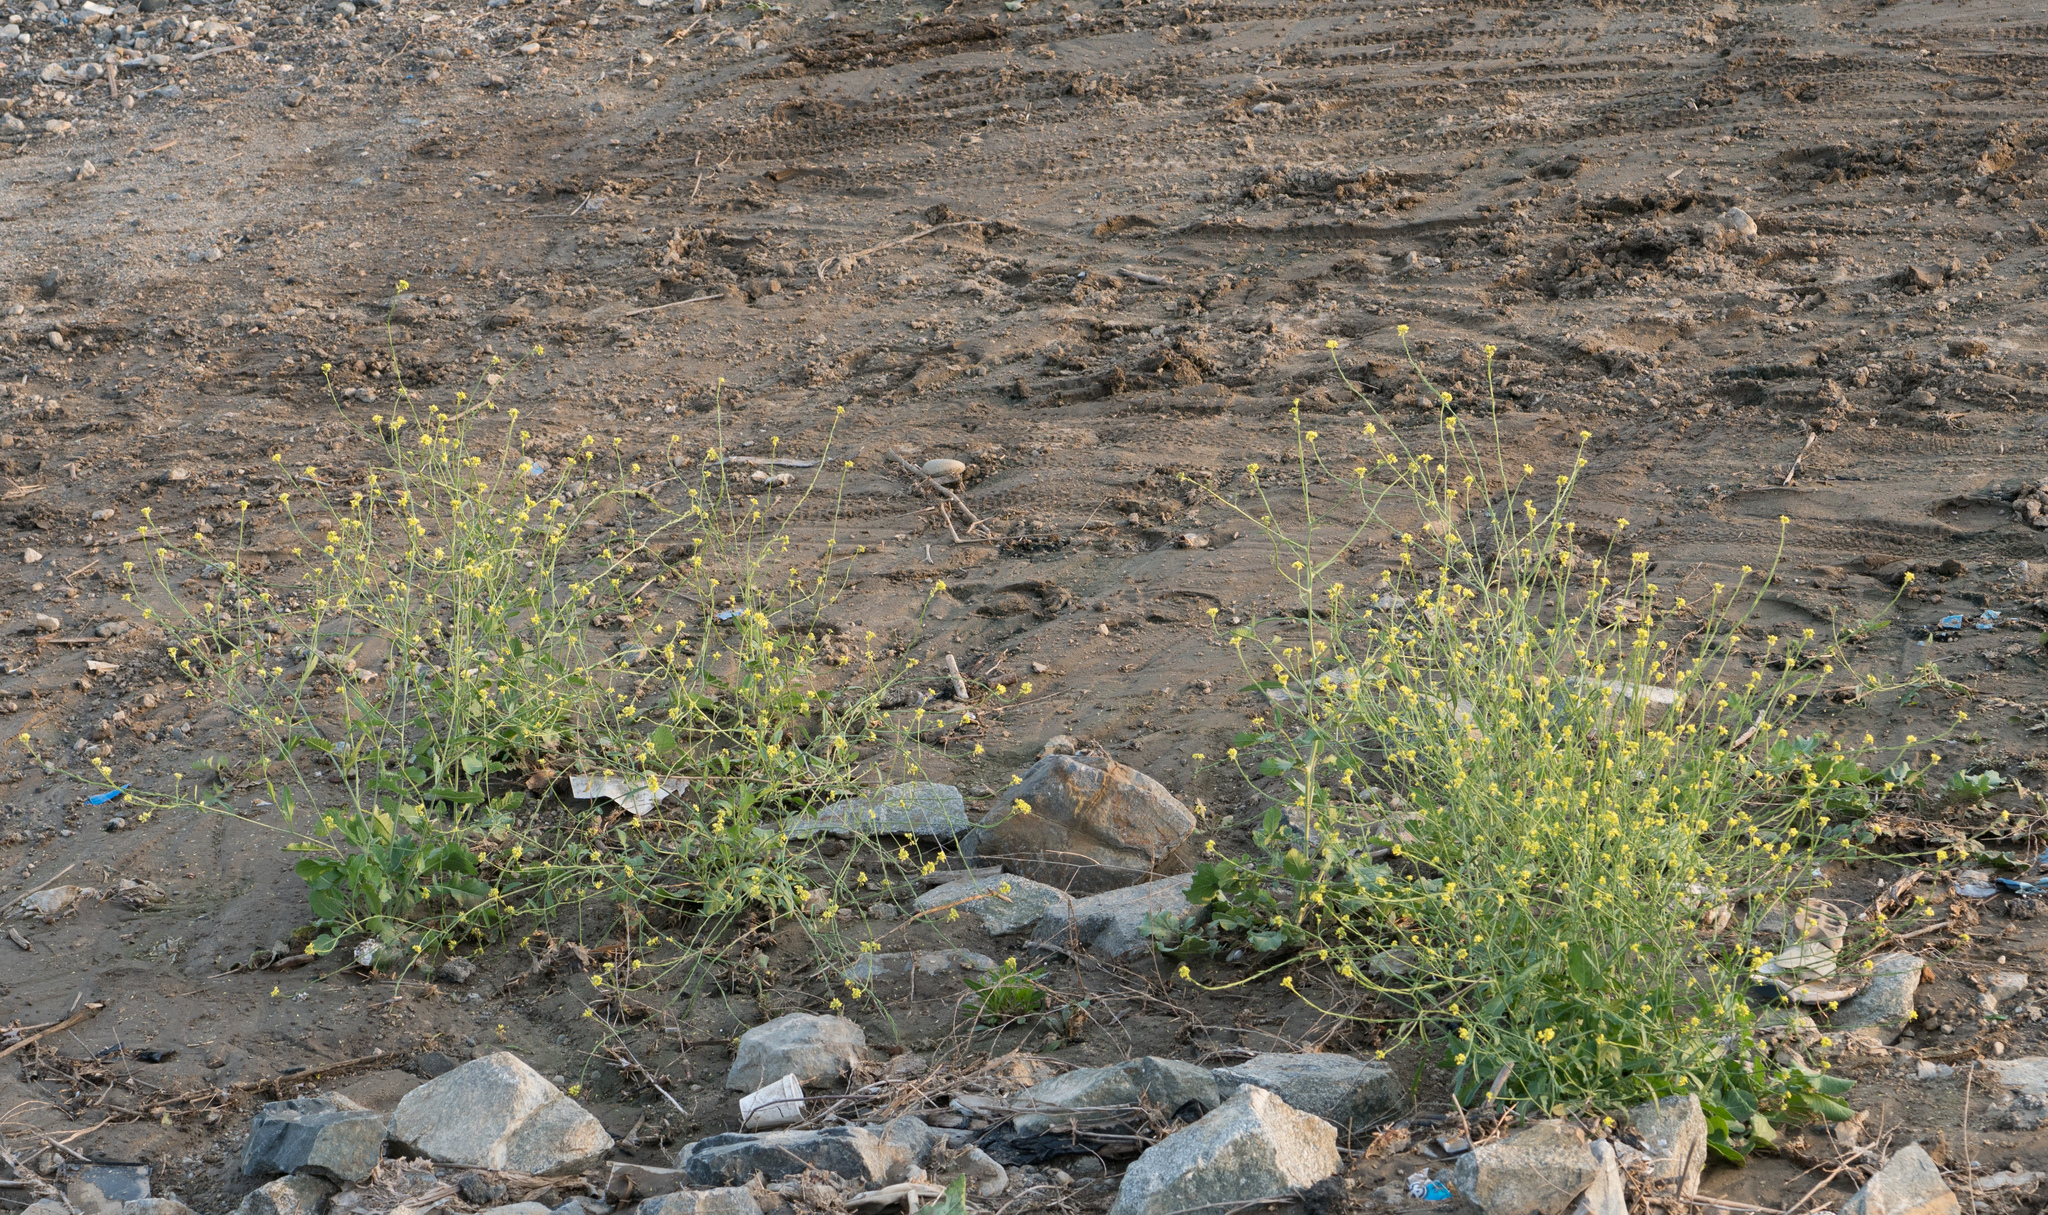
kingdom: Plantae
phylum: Tracheophyta
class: Magnoliopsida
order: Brassicales
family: Brassicaceae
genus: Hirschfeldia
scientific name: Hirschfeldia incana
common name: Hoary mustard
